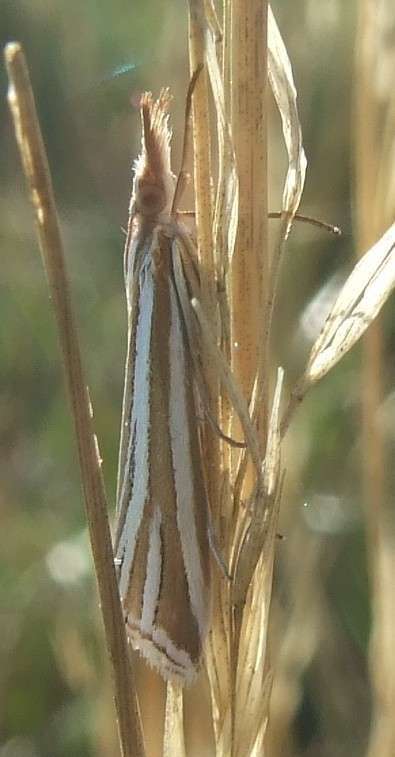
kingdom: Animalia
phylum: Arthropoda
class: Insecta
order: Lepidoptera
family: Crambidae
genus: Hednota
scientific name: Hednota relatalis
